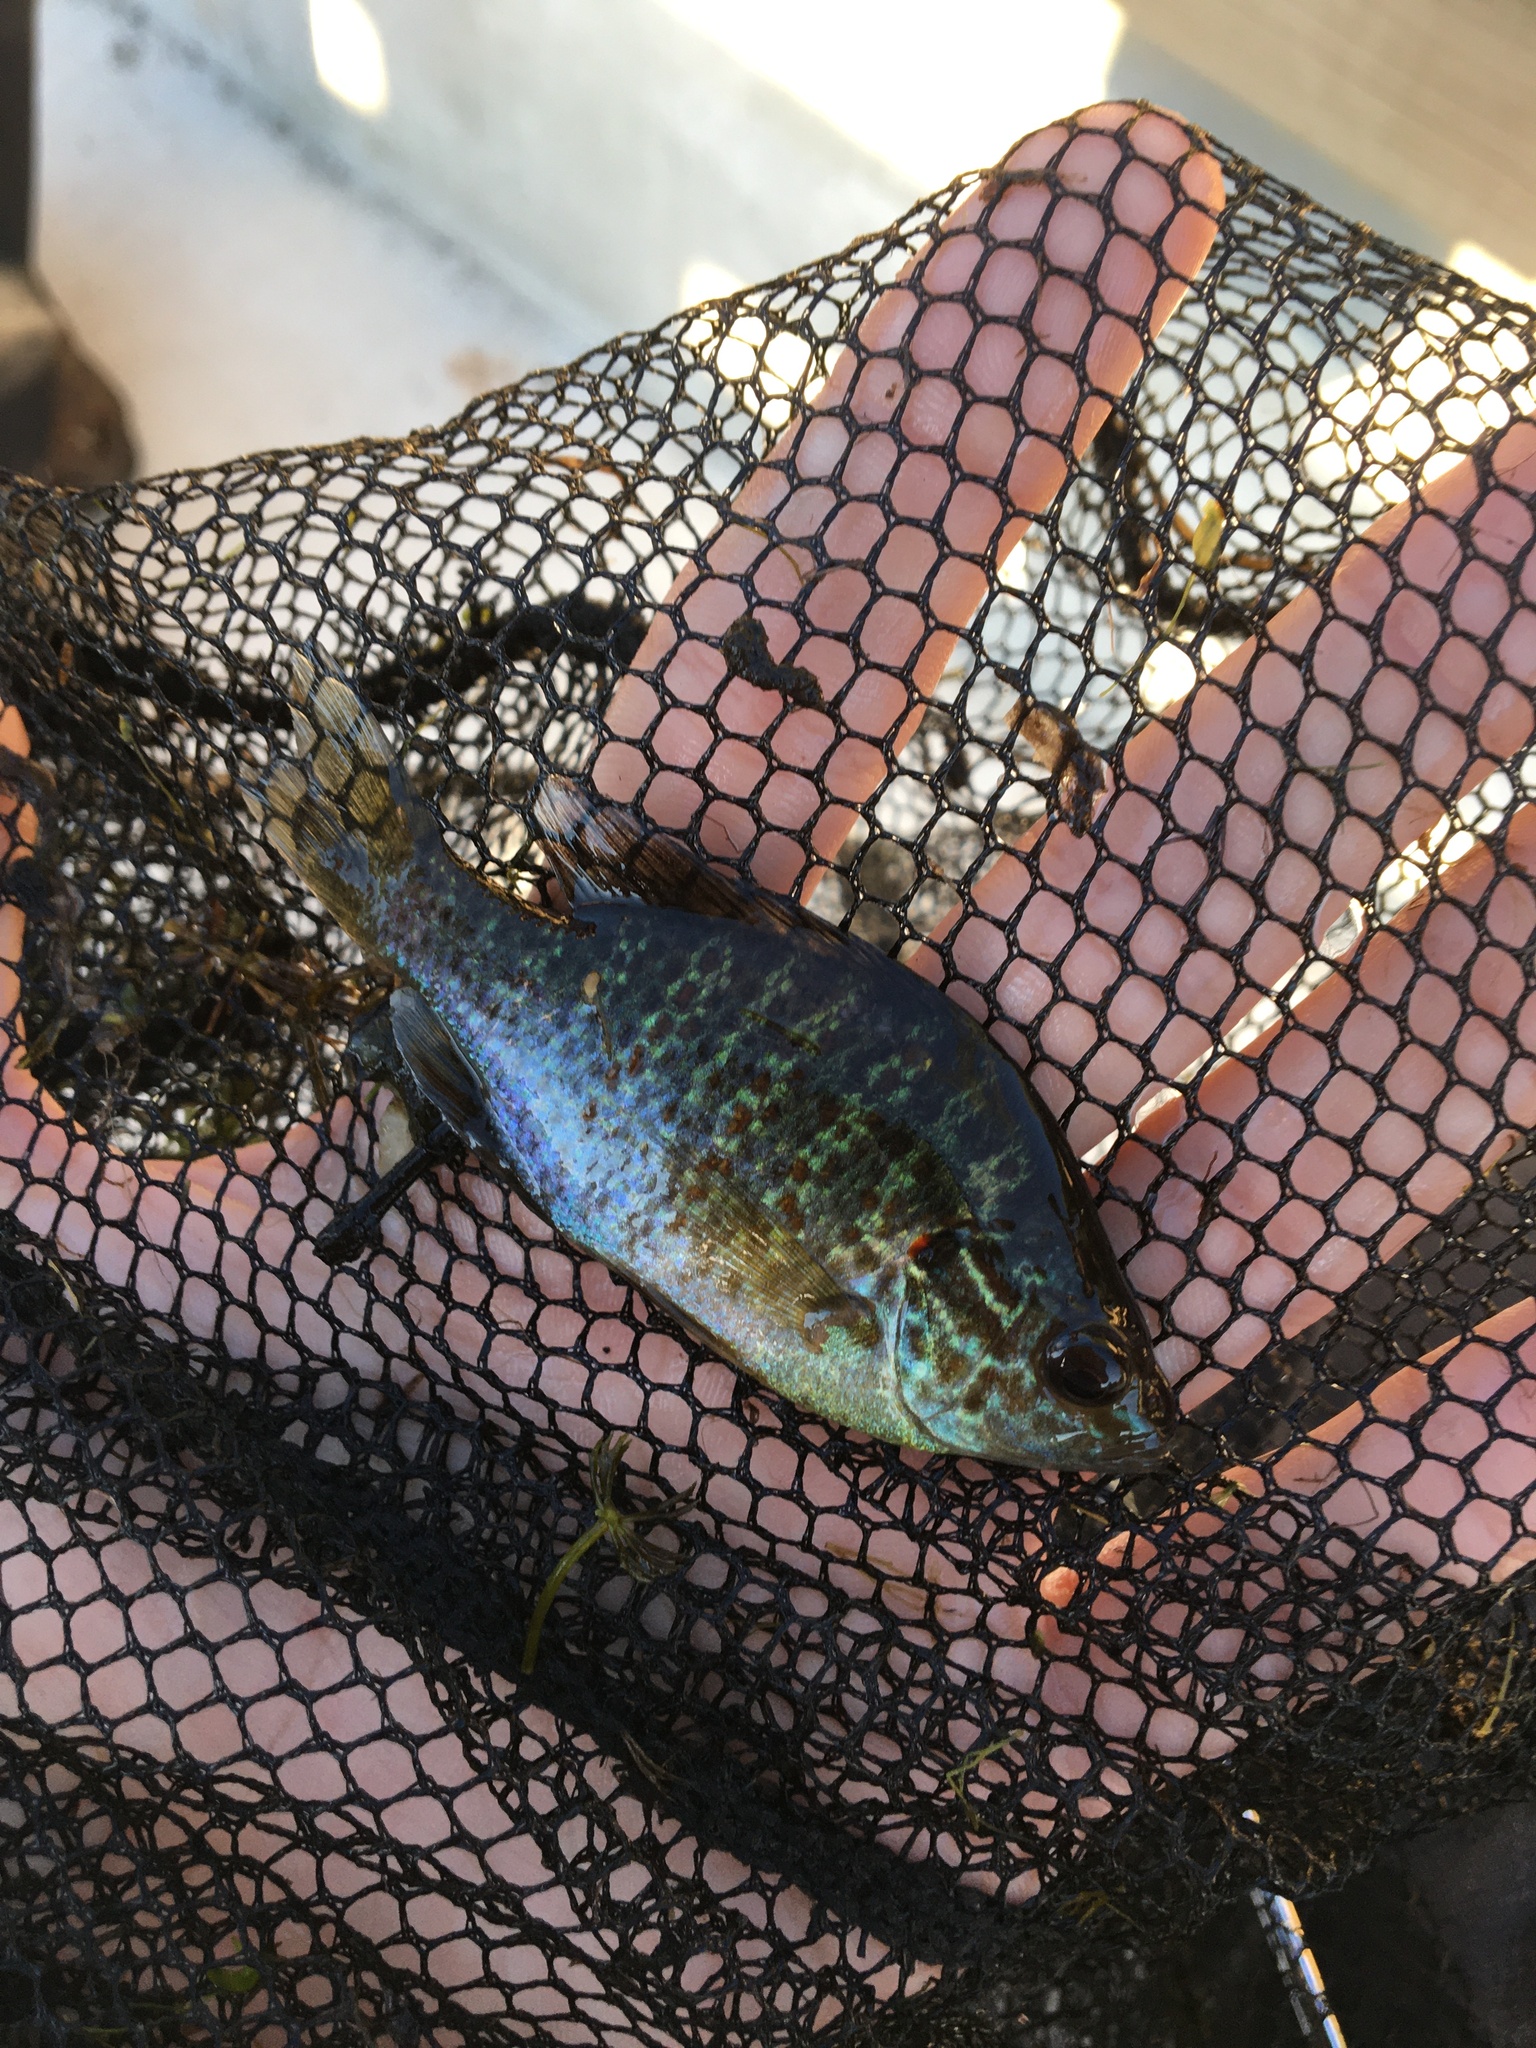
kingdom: Animalia
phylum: Chordata
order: Perciformes
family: Centrarchidae
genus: Lepomis
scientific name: Lepomis gibbosus
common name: Pumpkinseed
